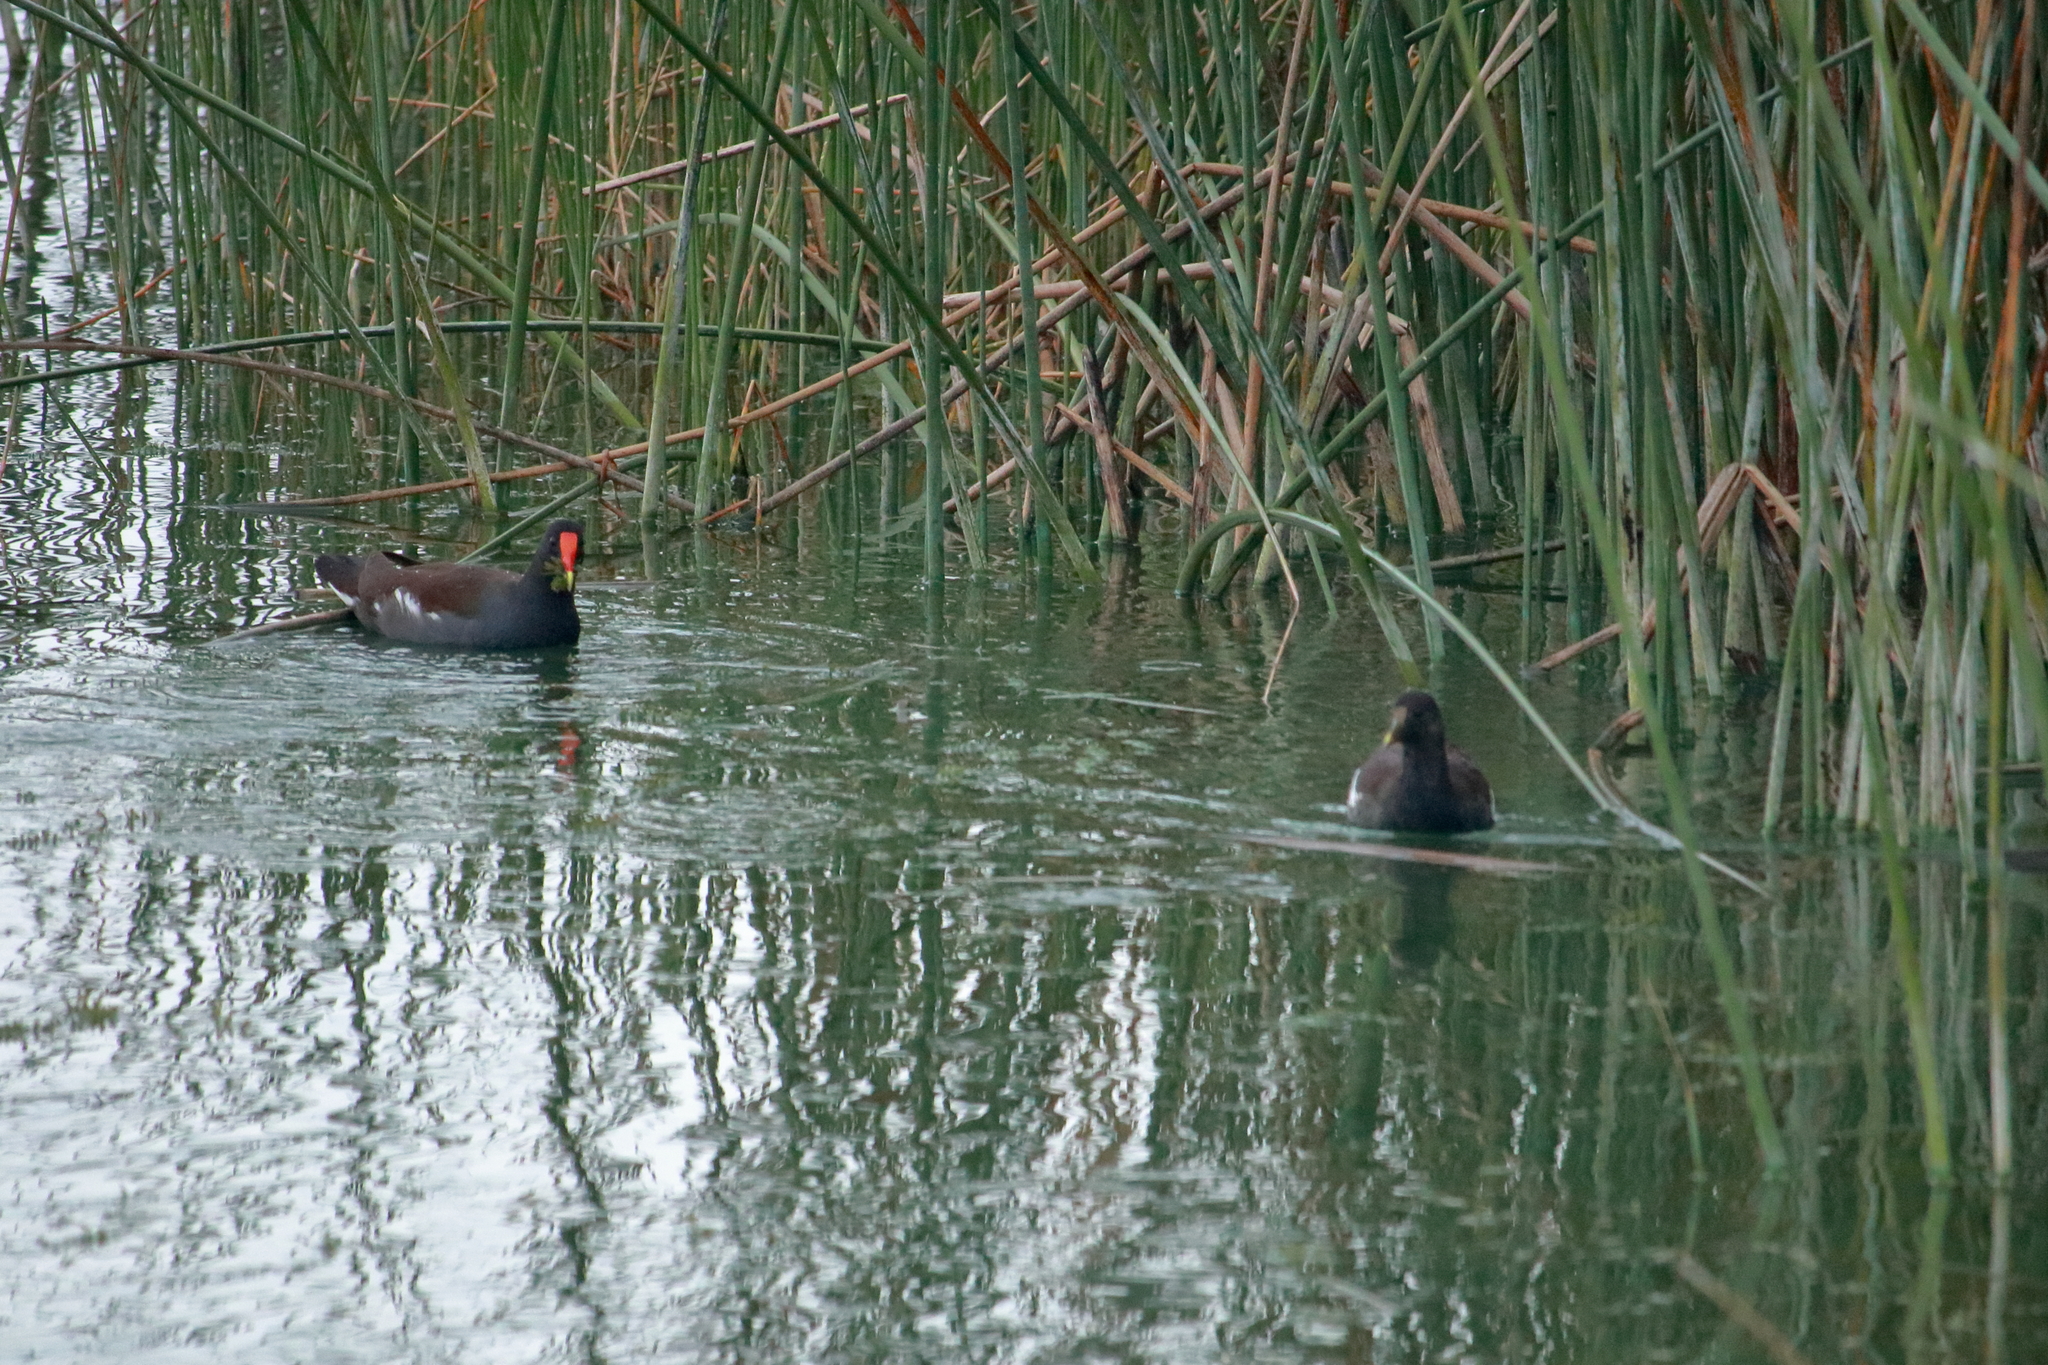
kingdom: Animalia
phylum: Chordata
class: Aves
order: Gruiformes
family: Rallidae
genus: Gallinula
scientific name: Gallinula chloropus
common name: Common moorhen
